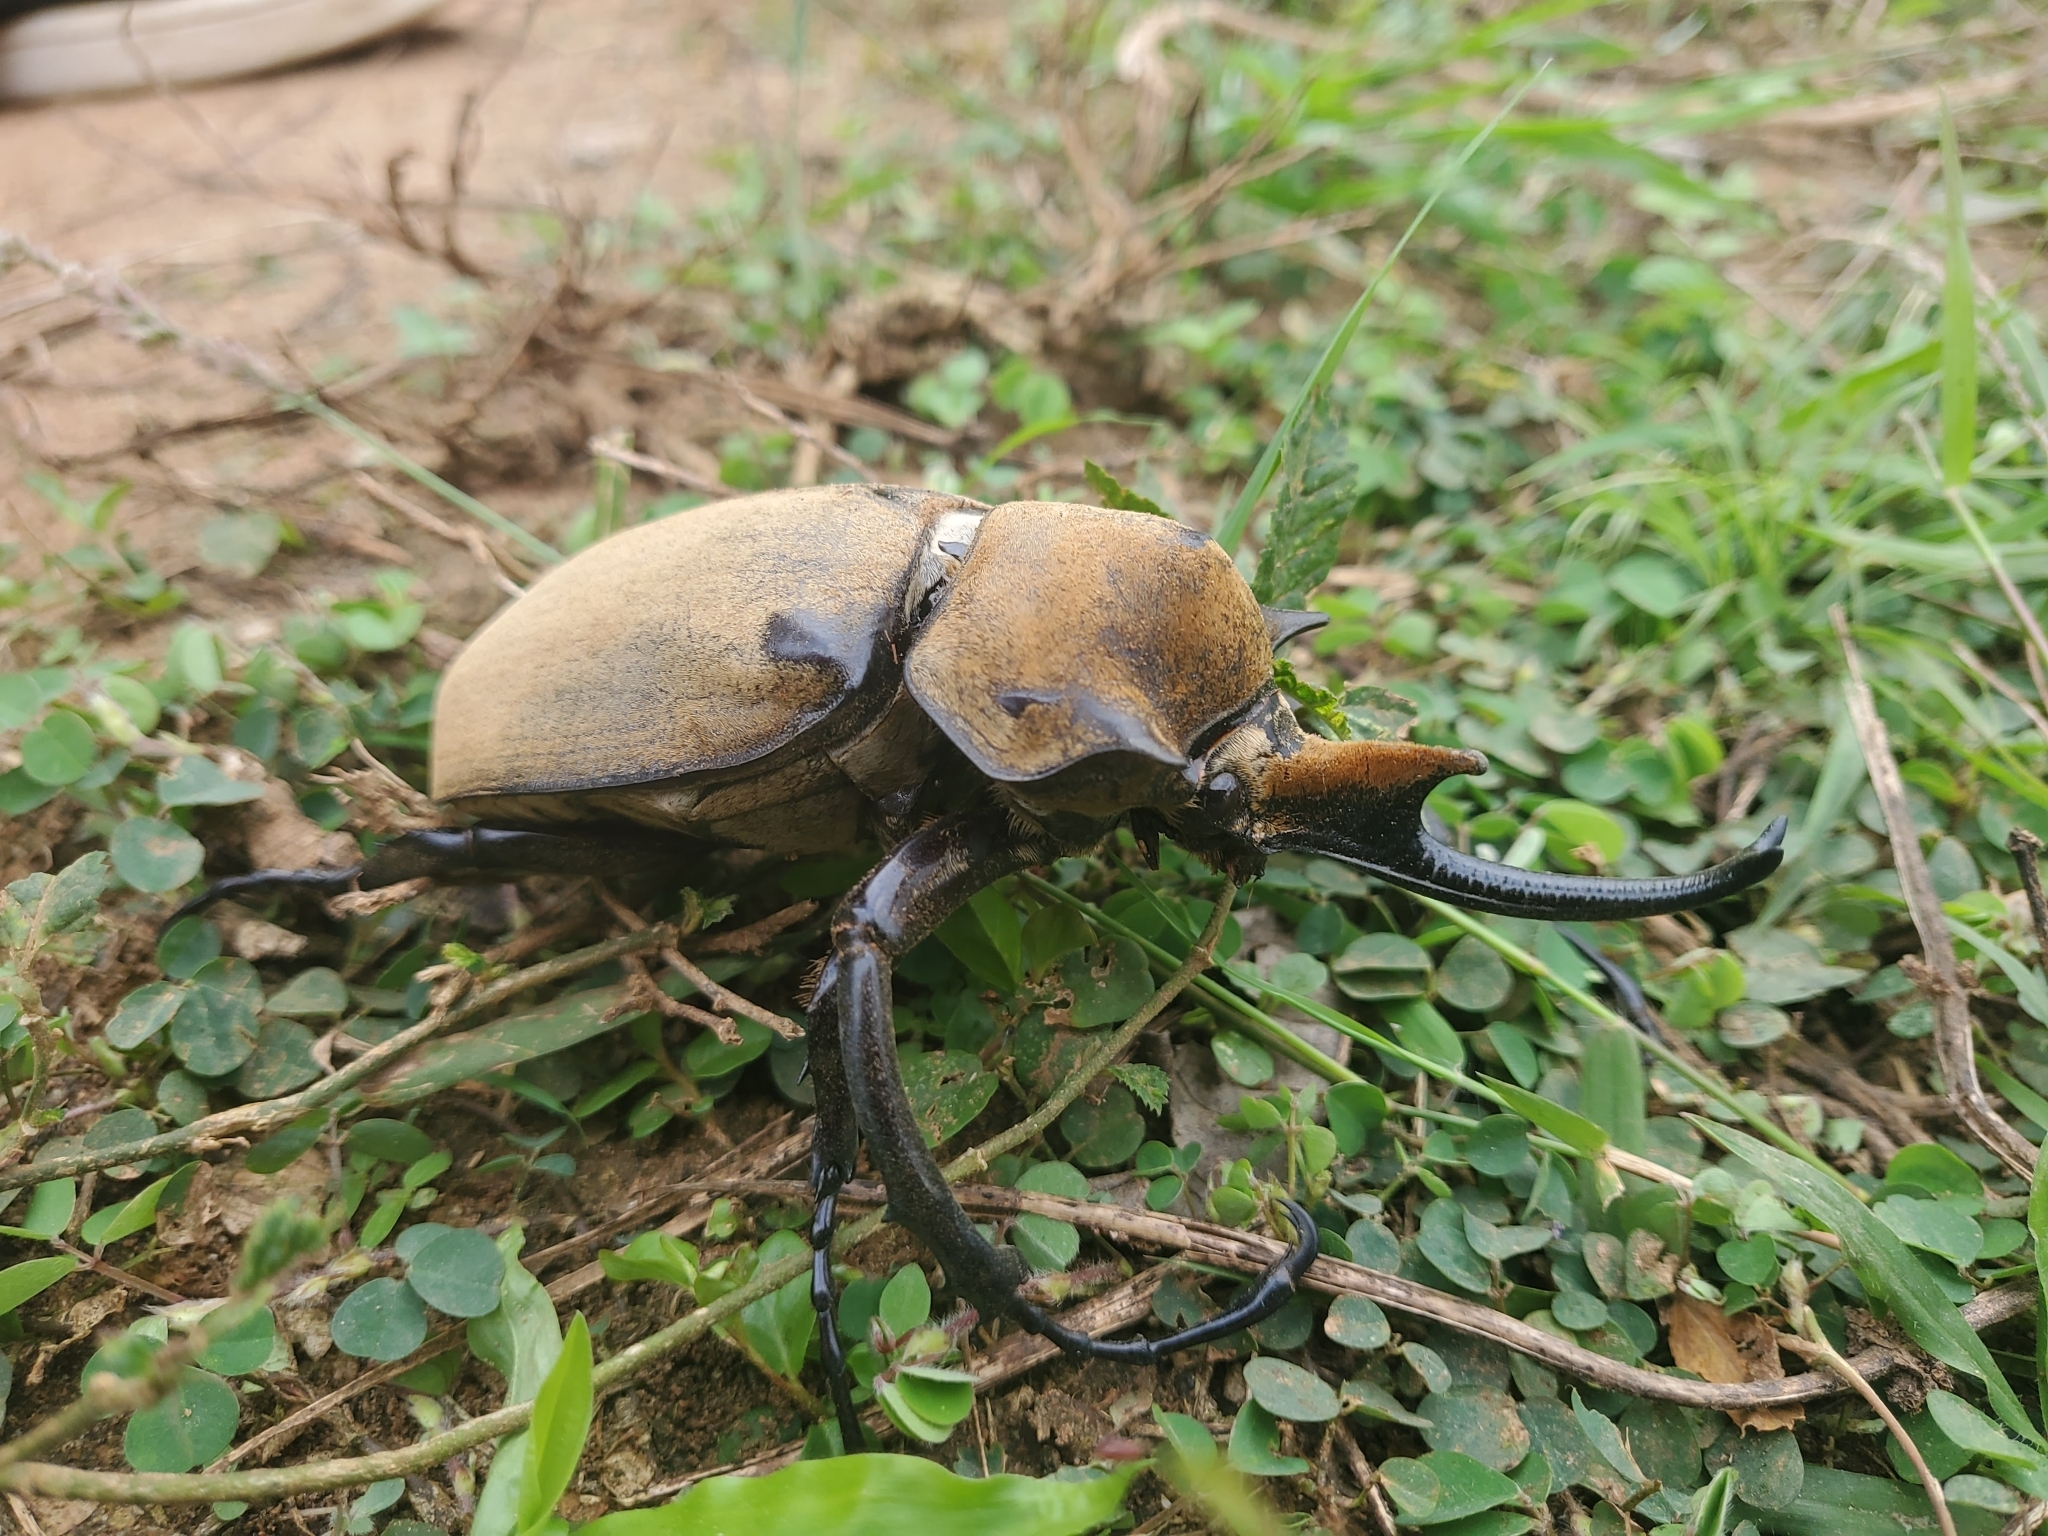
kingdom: Animalia
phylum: Arthropoda
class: Insecta
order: Coleoptera
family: Scarabaeidae
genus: Megasoma
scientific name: Megasoma elephas
